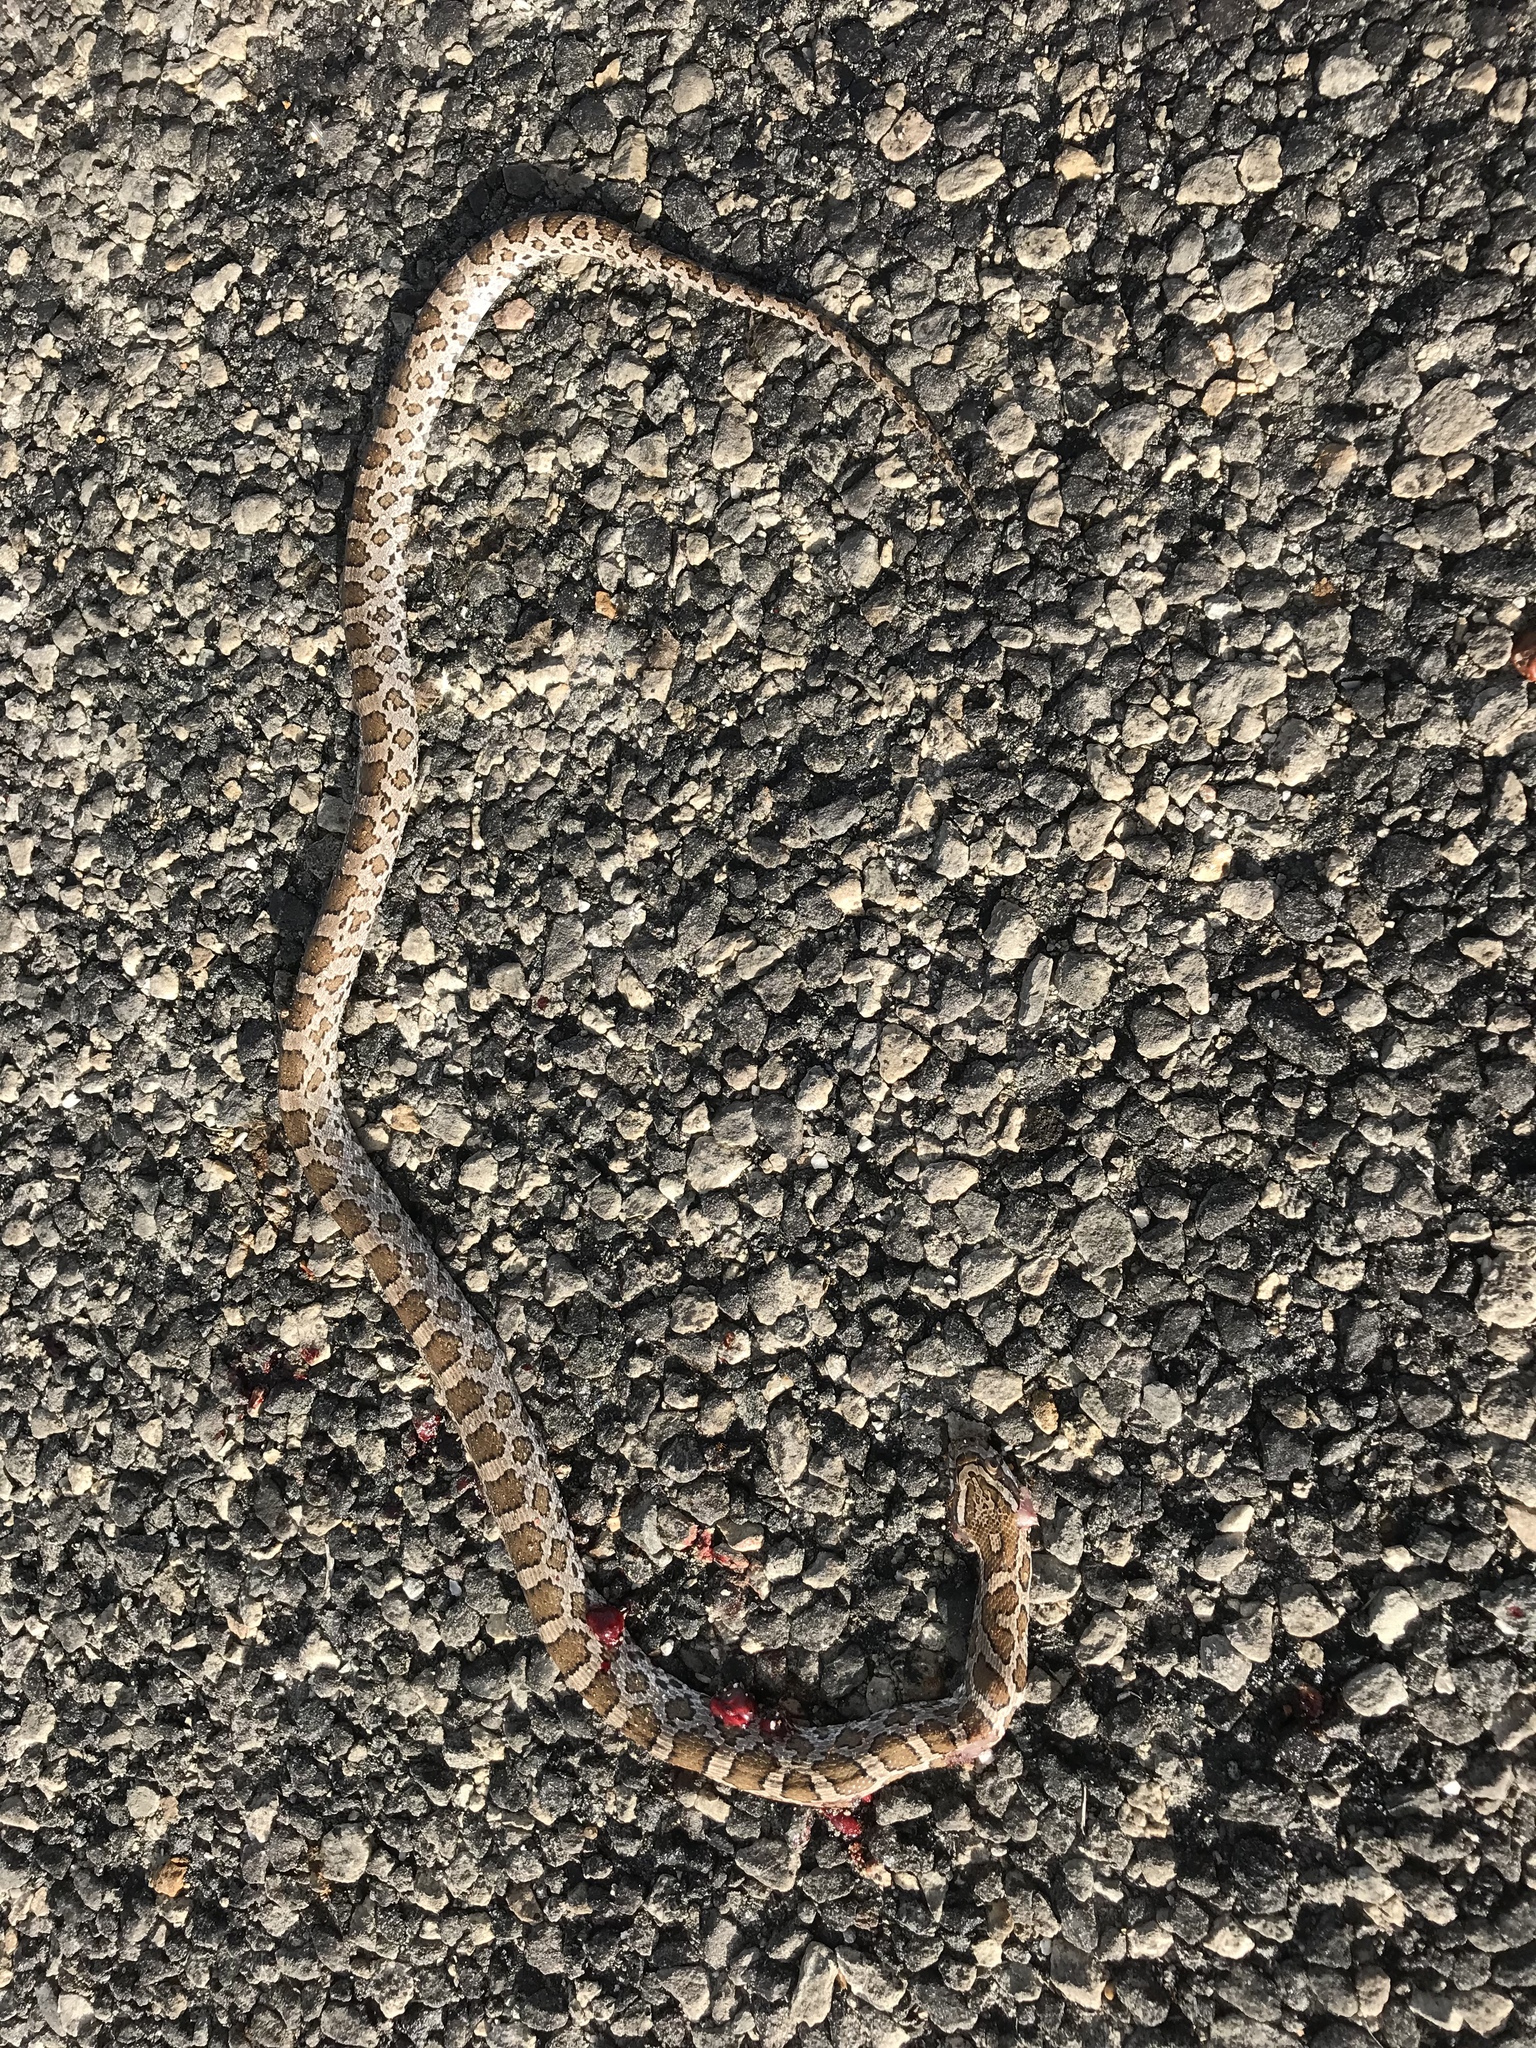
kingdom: Animalia
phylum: Chordata
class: Squamata
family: Colubridae
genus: Pantherophis
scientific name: Pantherophis emoryi
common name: Great plains rat snake
